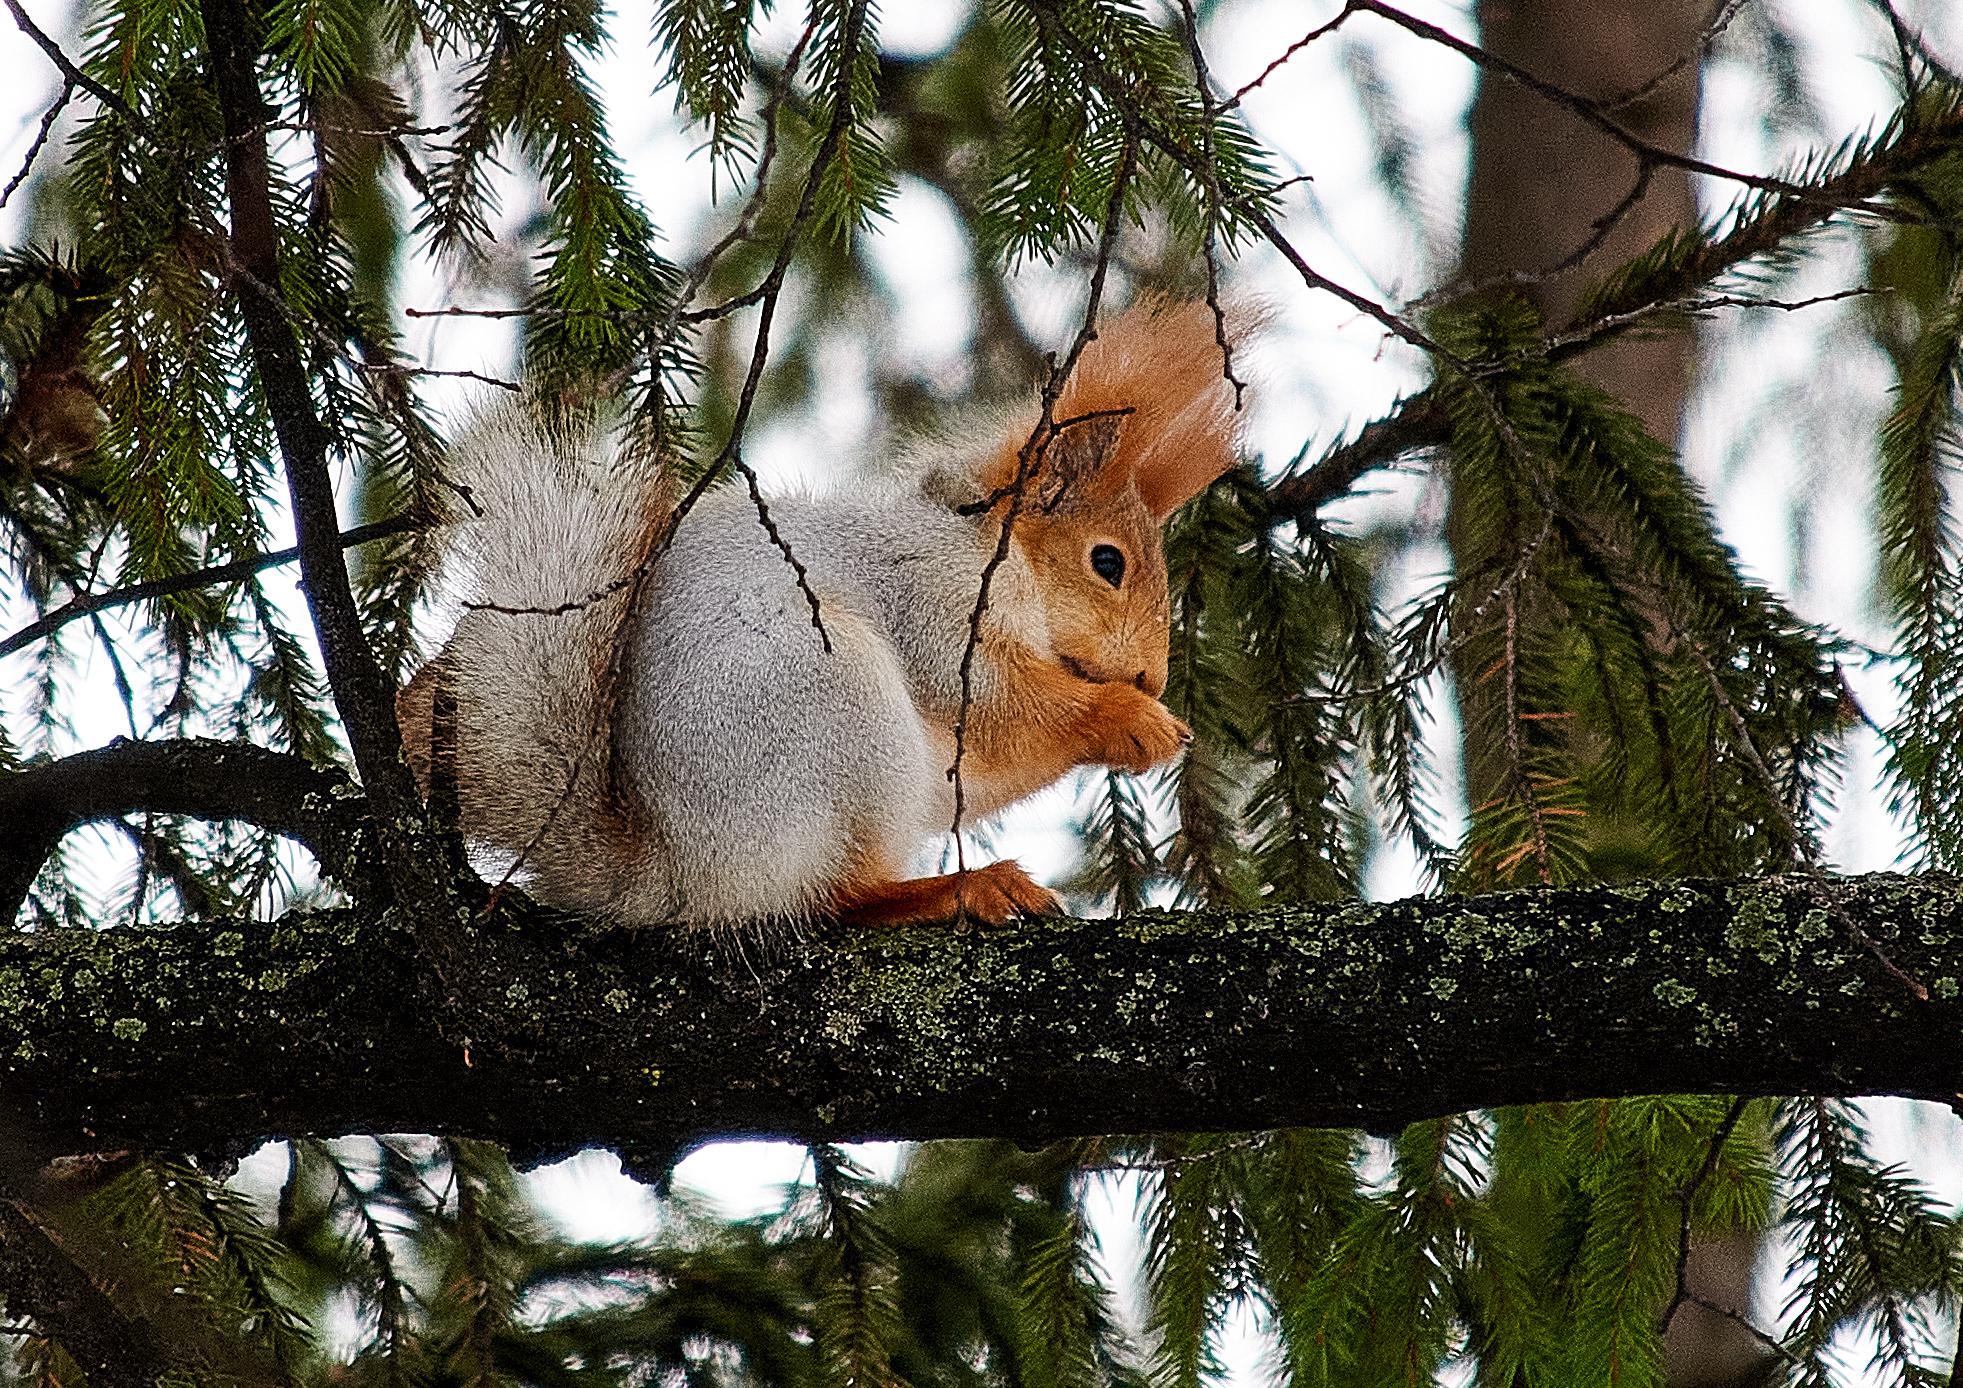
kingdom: Animalia
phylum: Chordata
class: Mammalia
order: Rodentia
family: Sciuridae
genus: Sciurus
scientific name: Sciurus vulgaris
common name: Eurasian red squirrel
